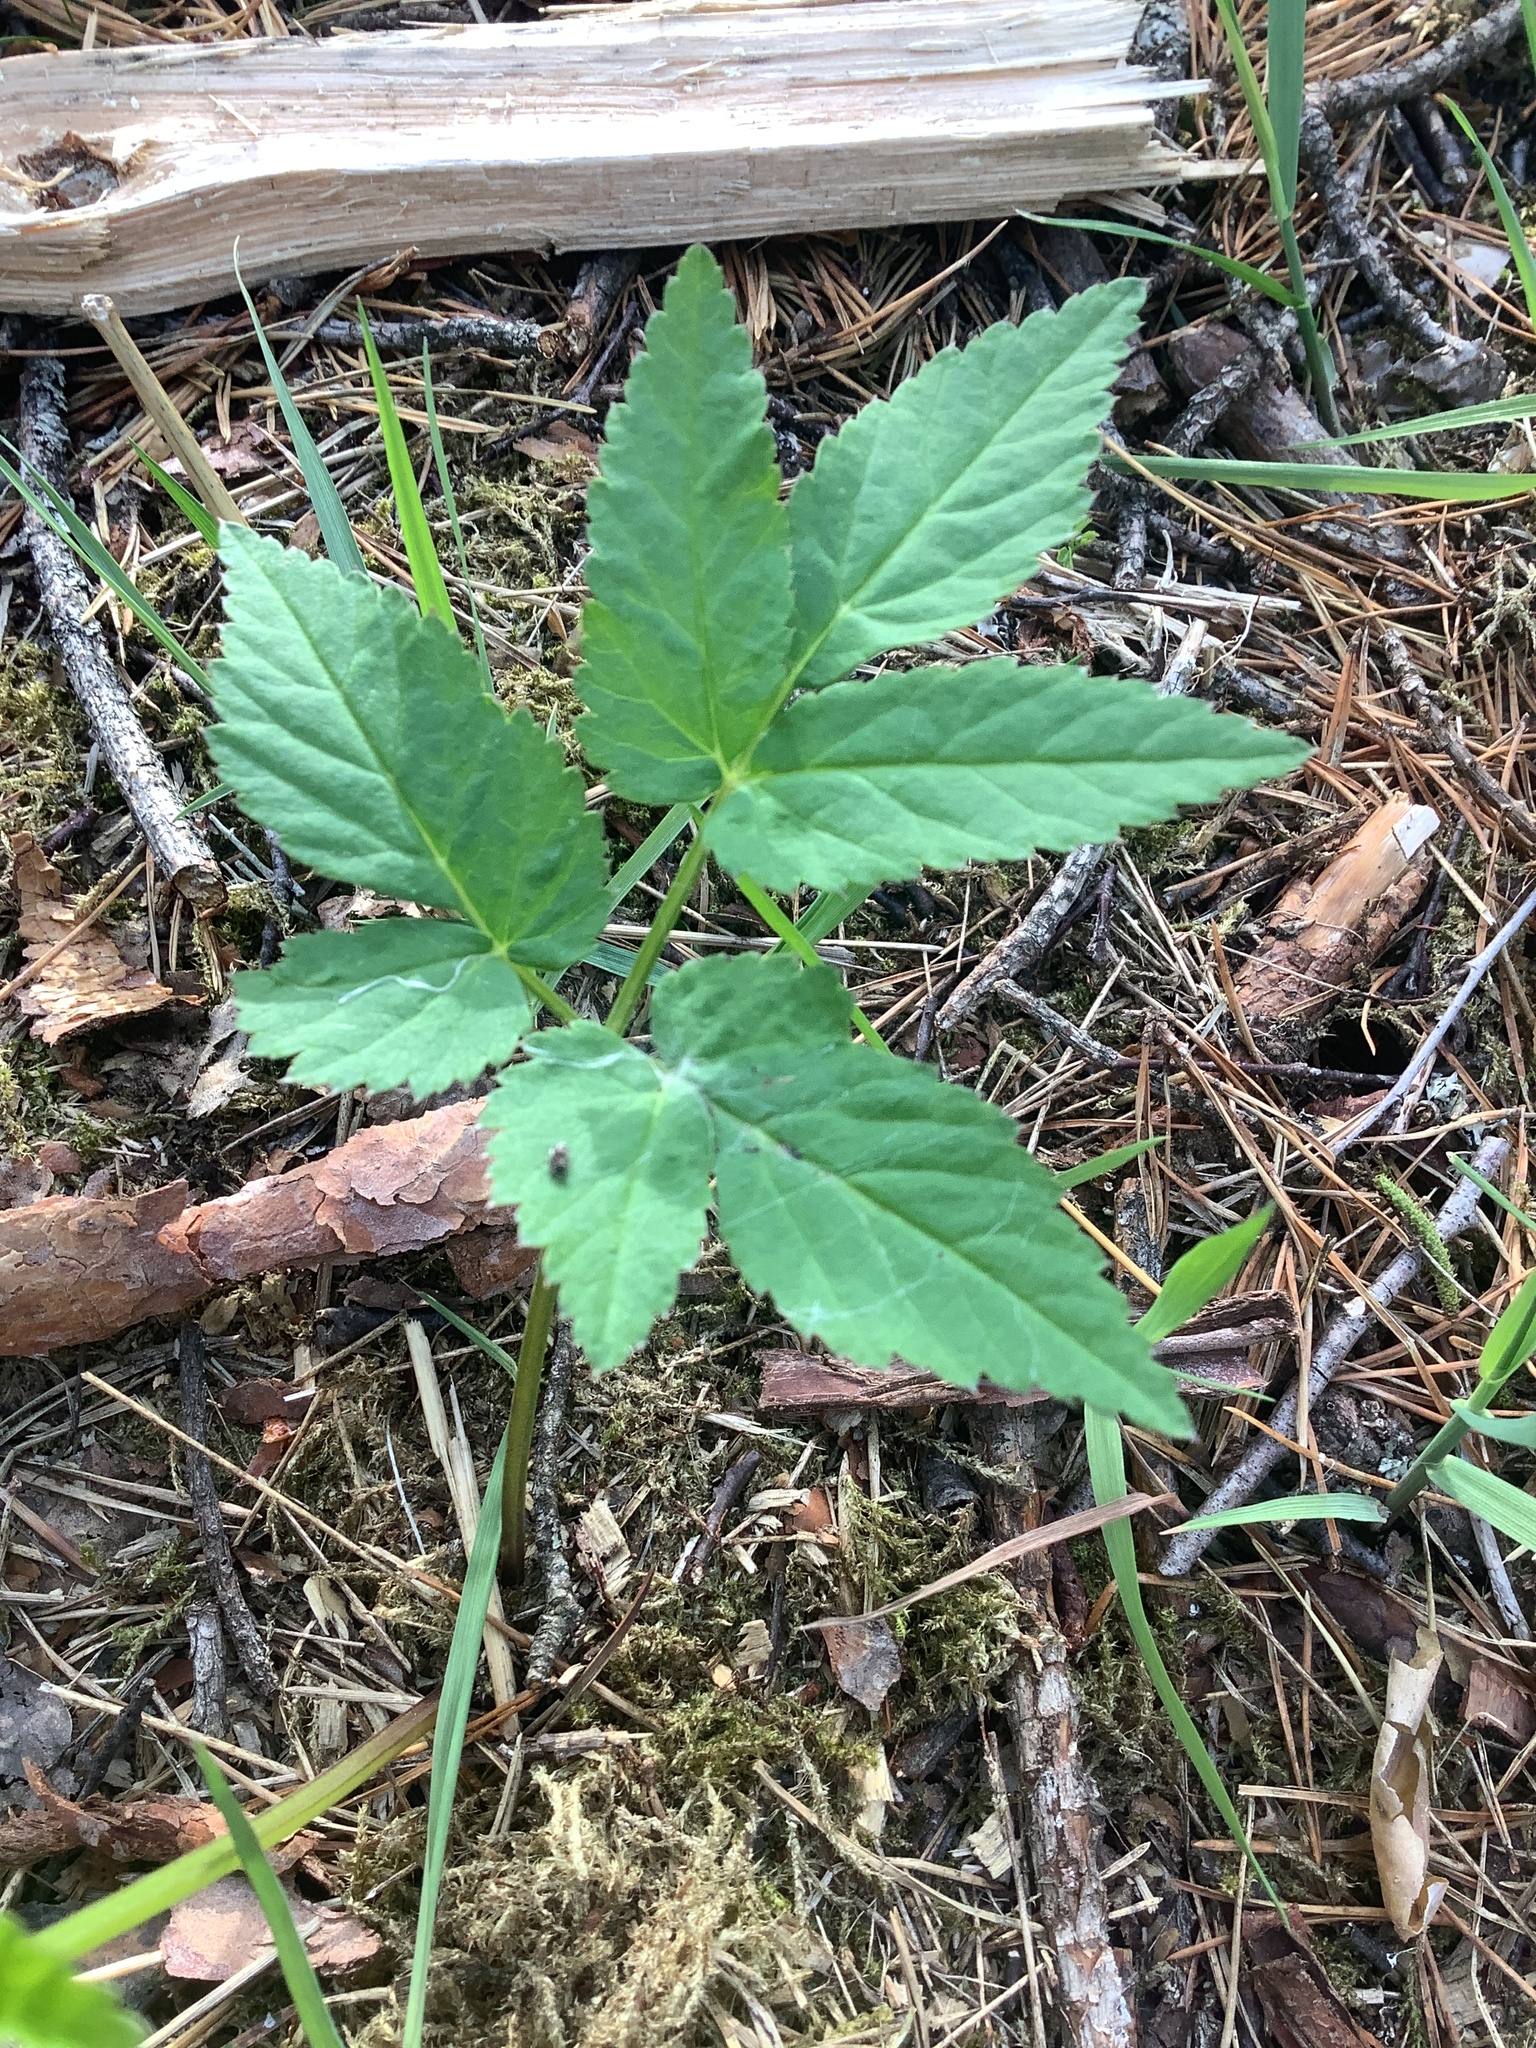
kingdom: Plantae
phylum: Tracheophyta
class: Magnoliopsida
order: Apiales
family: Apiaceae
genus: Aegopodium
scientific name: Aegopodium podagraria
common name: Ground-elder
